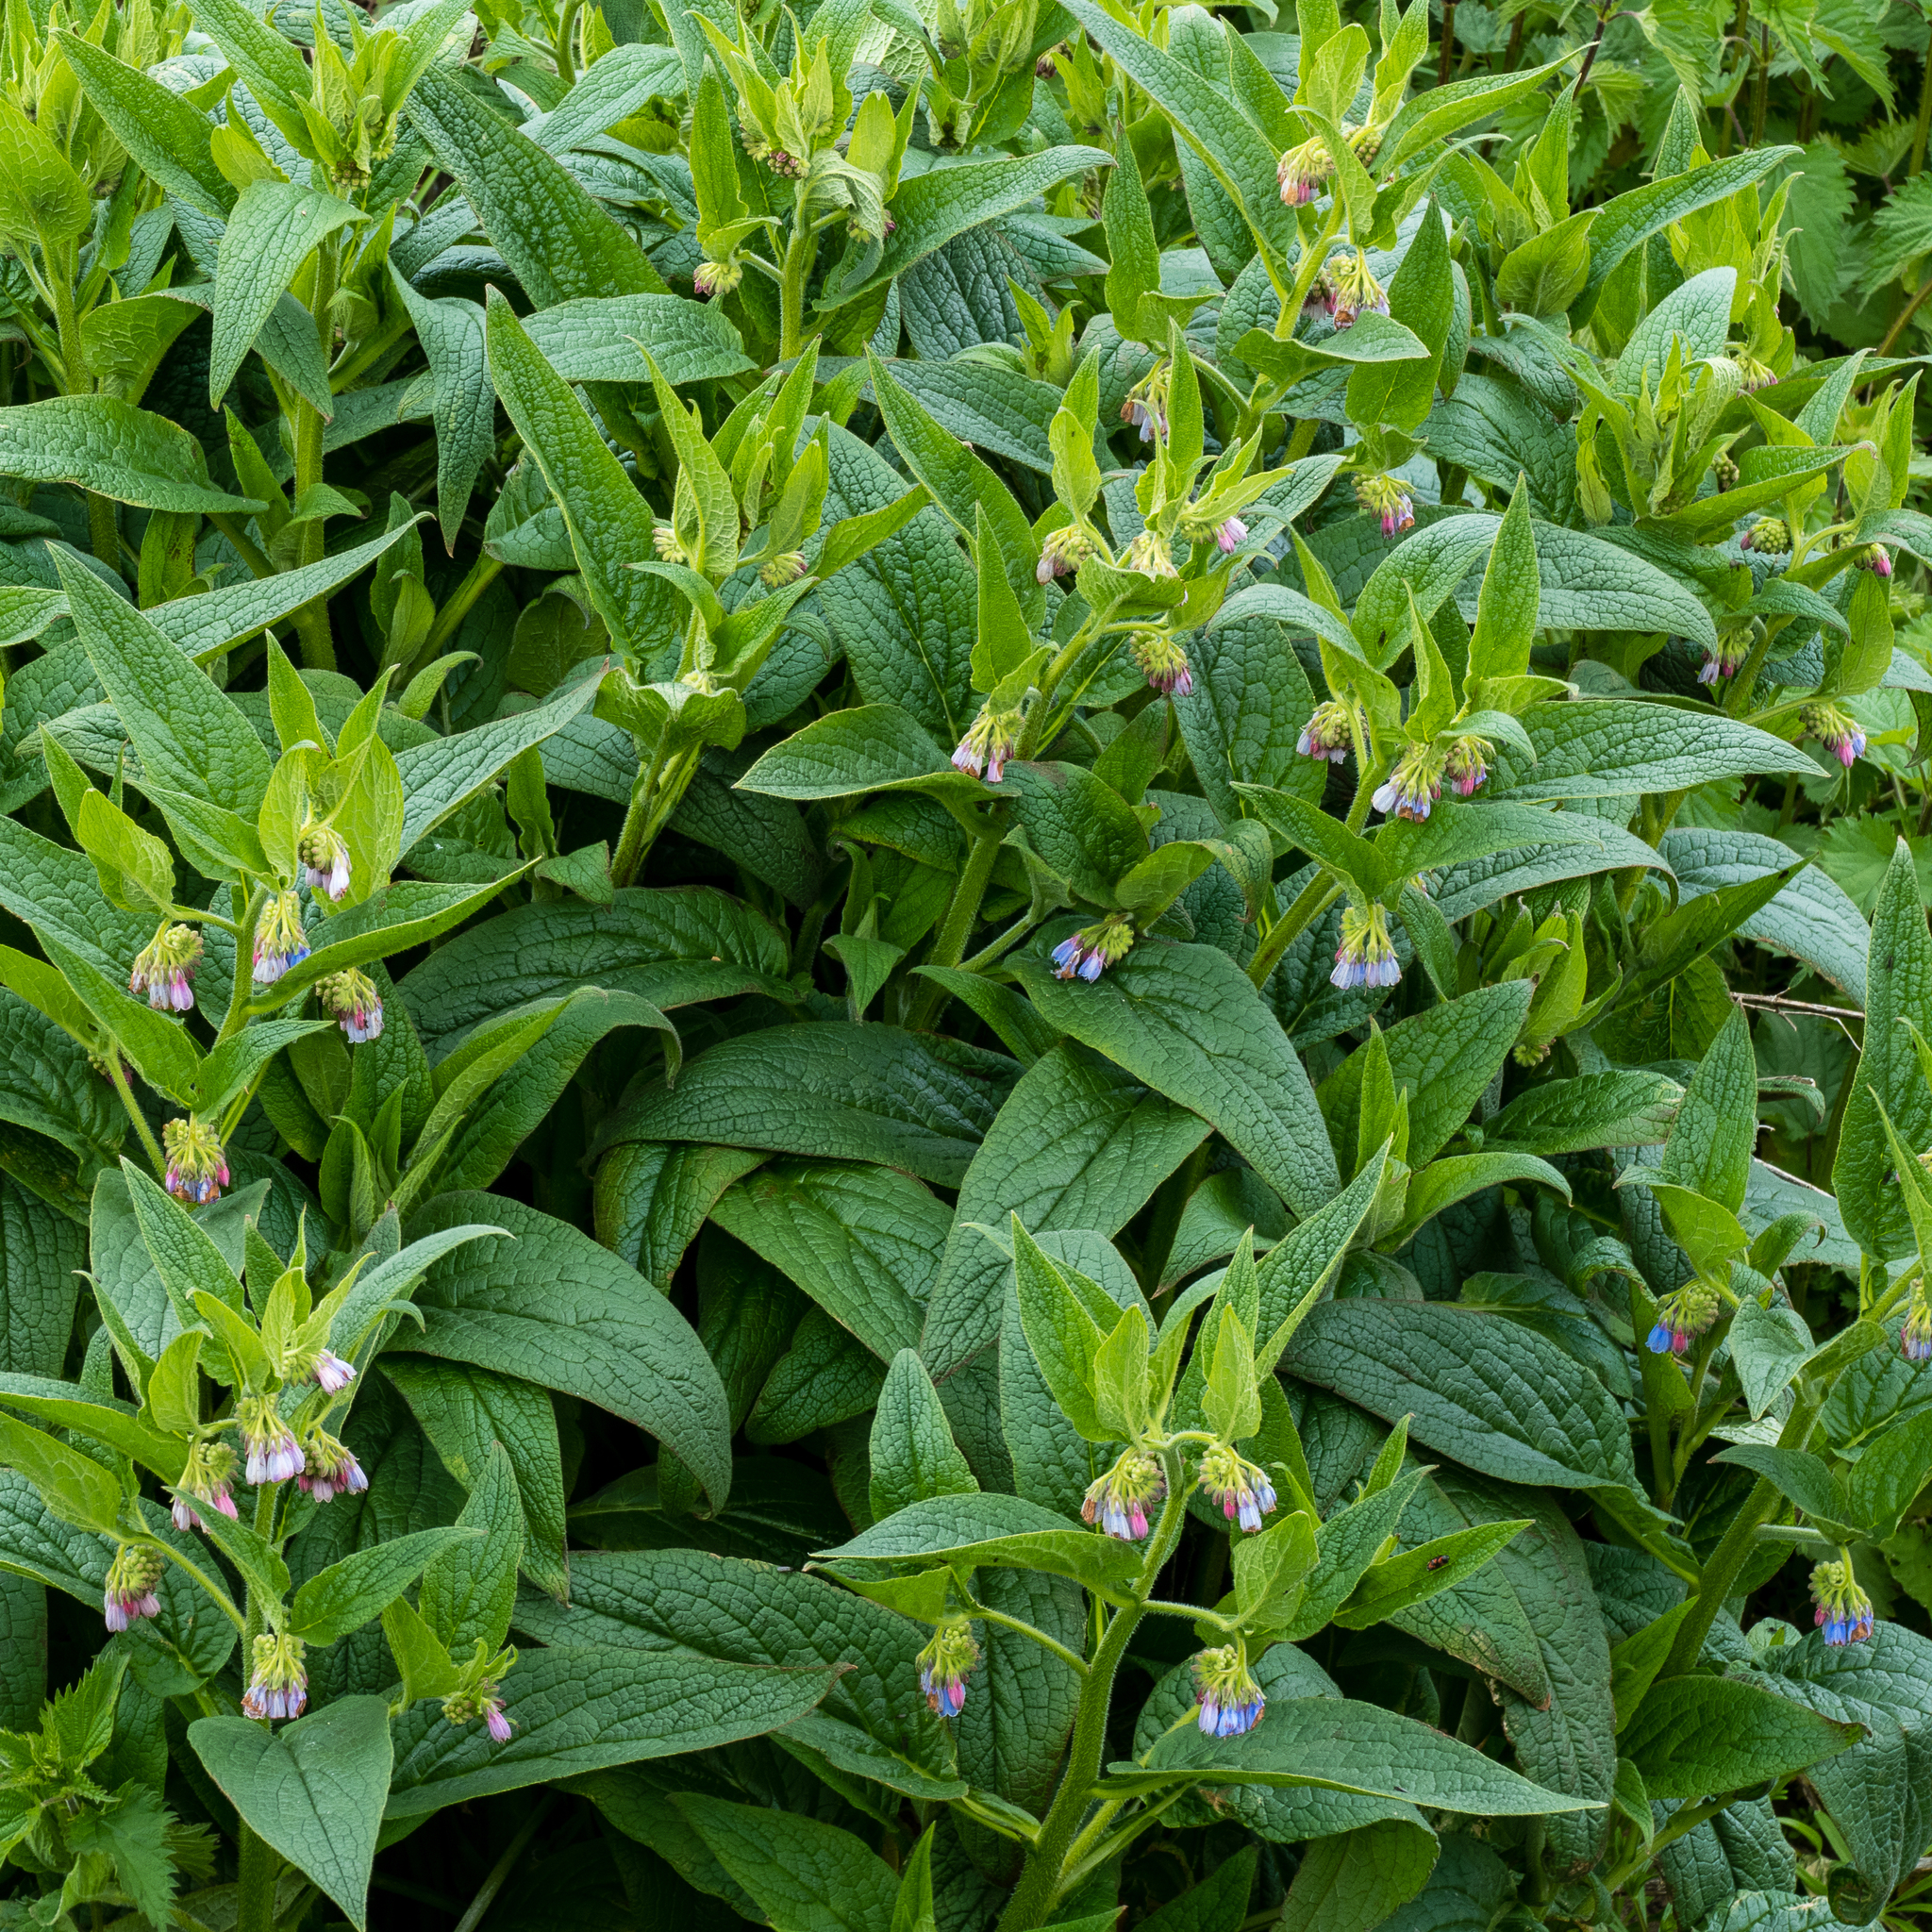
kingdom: Plantae
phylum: Tracheophyta
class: Magnoliopsida
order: Boraginales
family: Boraginaceae
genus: Symphytum
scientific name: Symphytum uplandicum
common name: Russian comfrey
